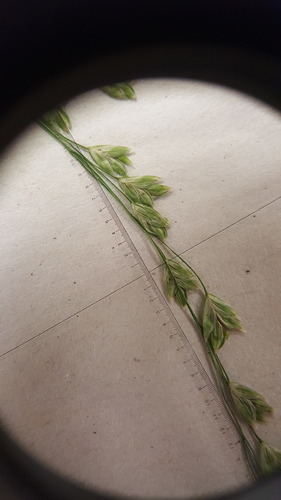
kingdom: Plantae
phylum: Tracheophyta
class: Liliopsida
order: Poales
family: Poaceae
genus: Glyceria
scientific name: Glyceria striata
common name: Fowl manna grass
